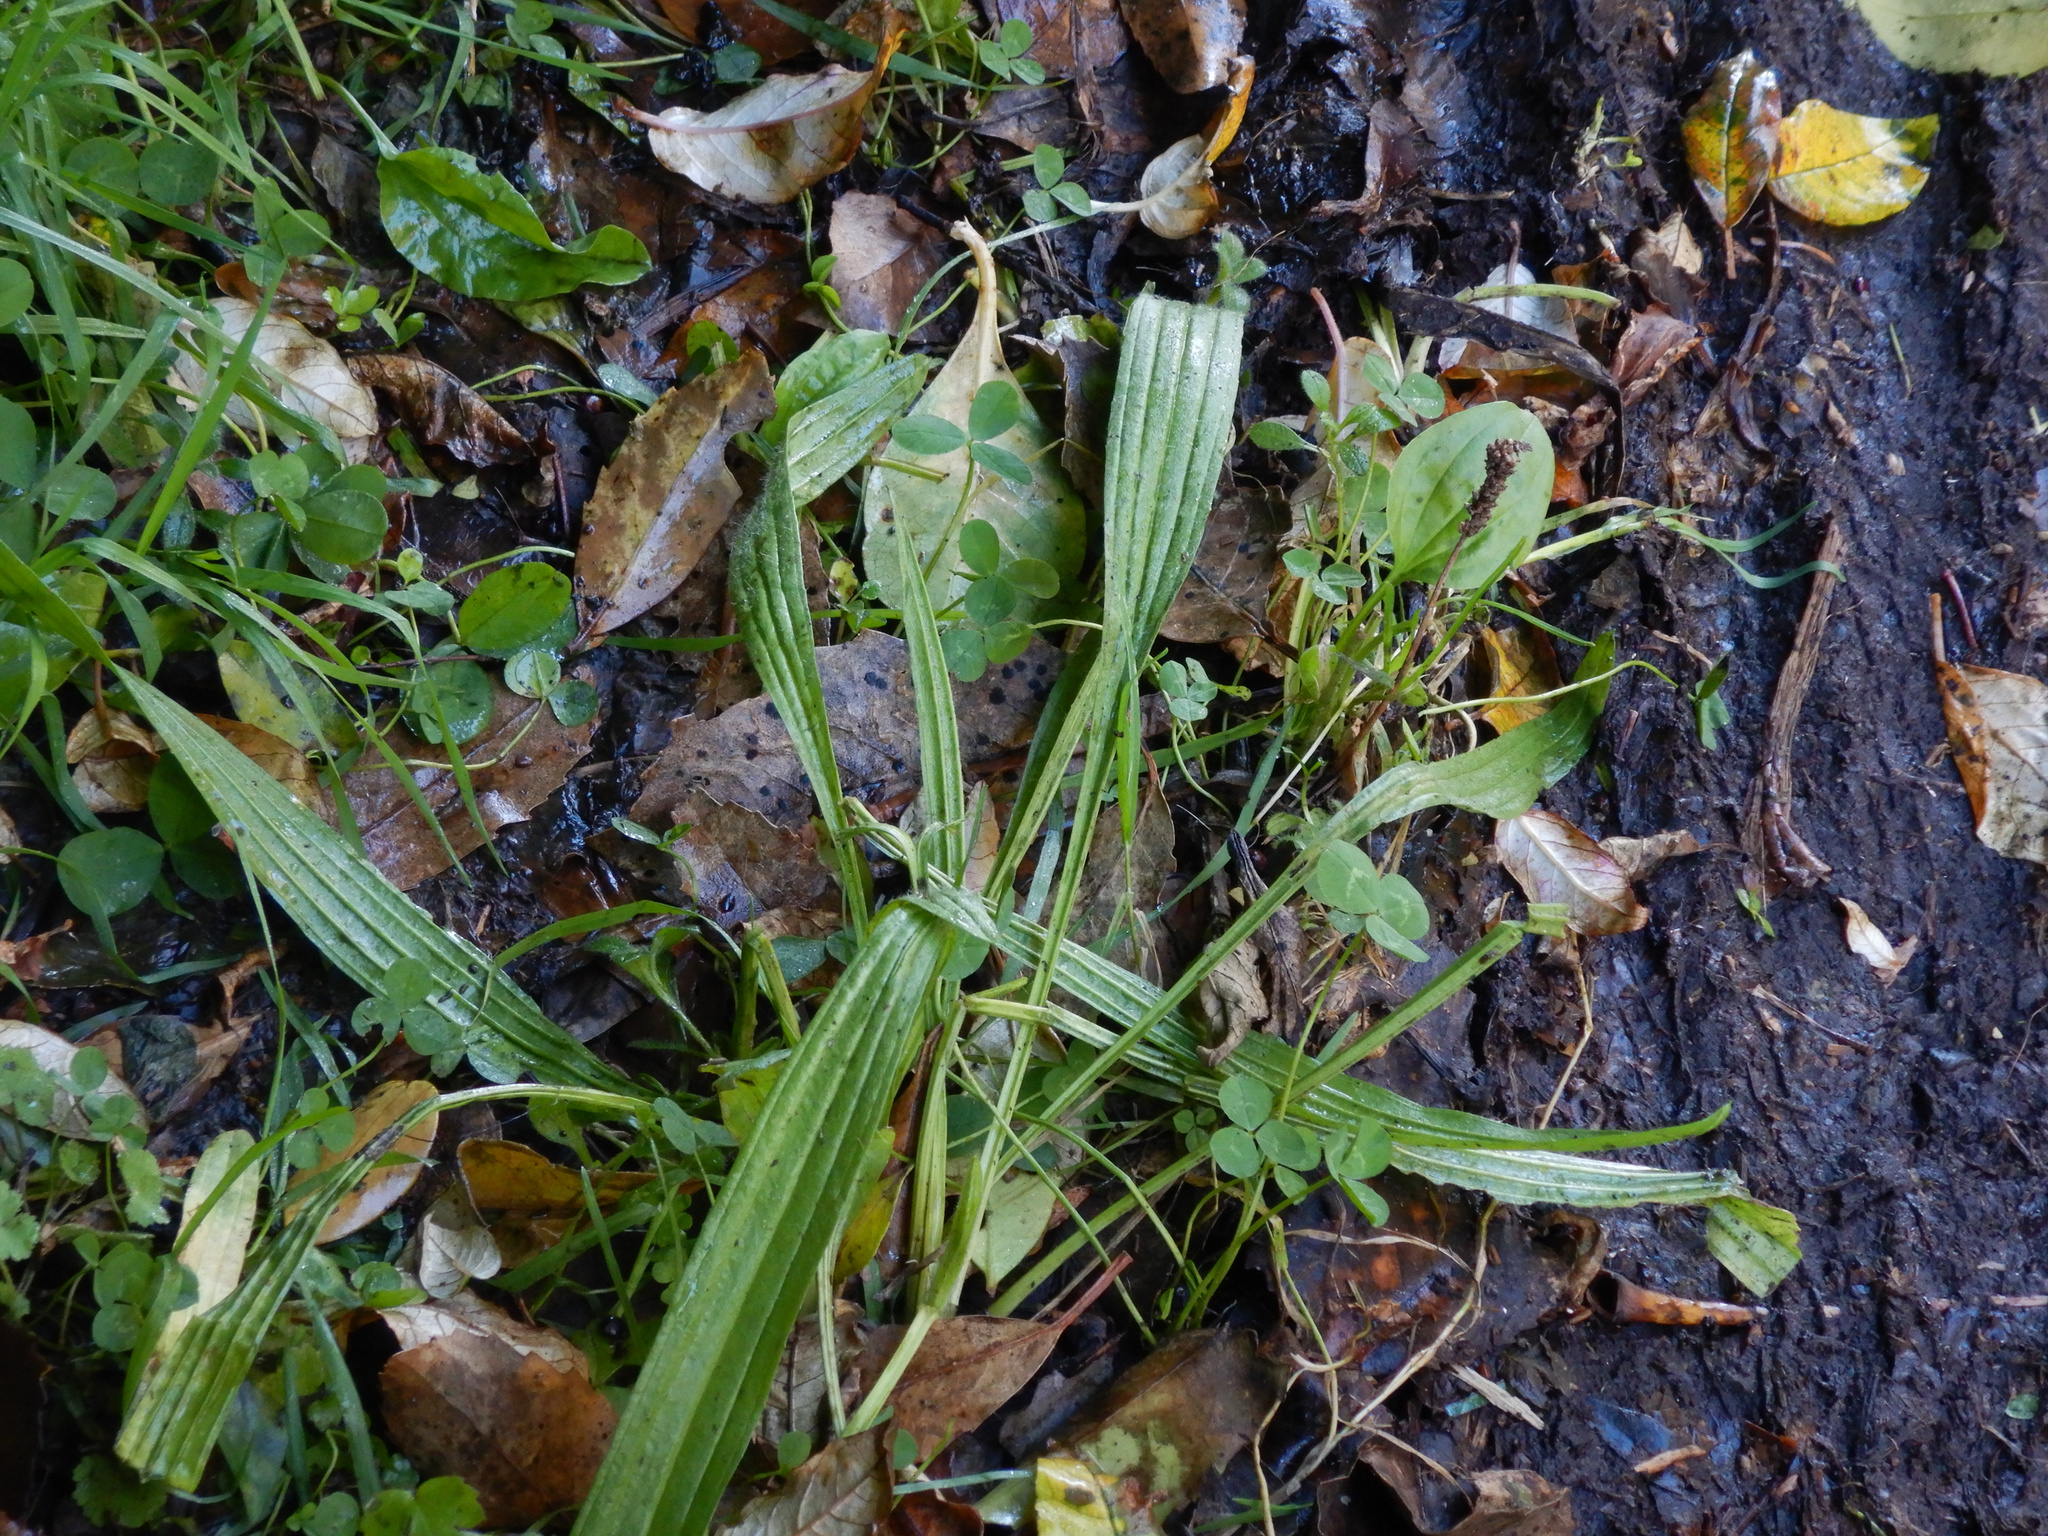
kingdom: Plantae
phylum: Tracheophyta
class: Magnoliopsida
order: Lamiales
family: Plantaginaceae
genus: Plantago
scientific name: Plantago lanceolata
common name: Ribwort plantain
